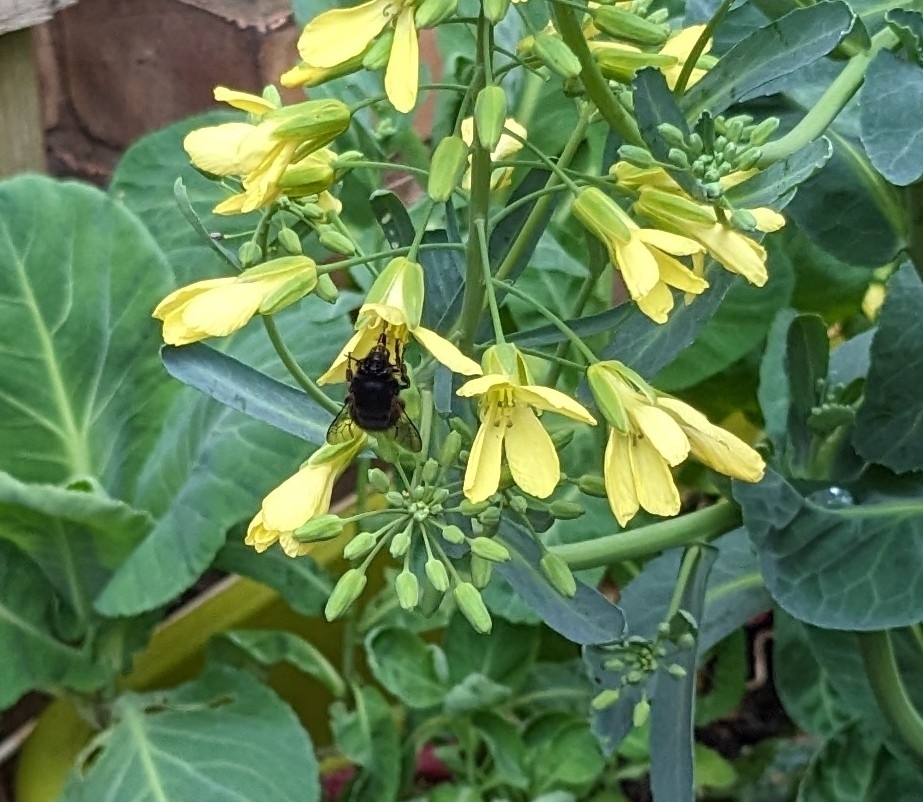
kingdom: Animalia
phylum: Arthropoda
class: Insecta
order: Hymenoptera
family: Apidae
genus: Anthophora
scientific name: Anthophora plumipes
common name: Hairy-footed flower bee
